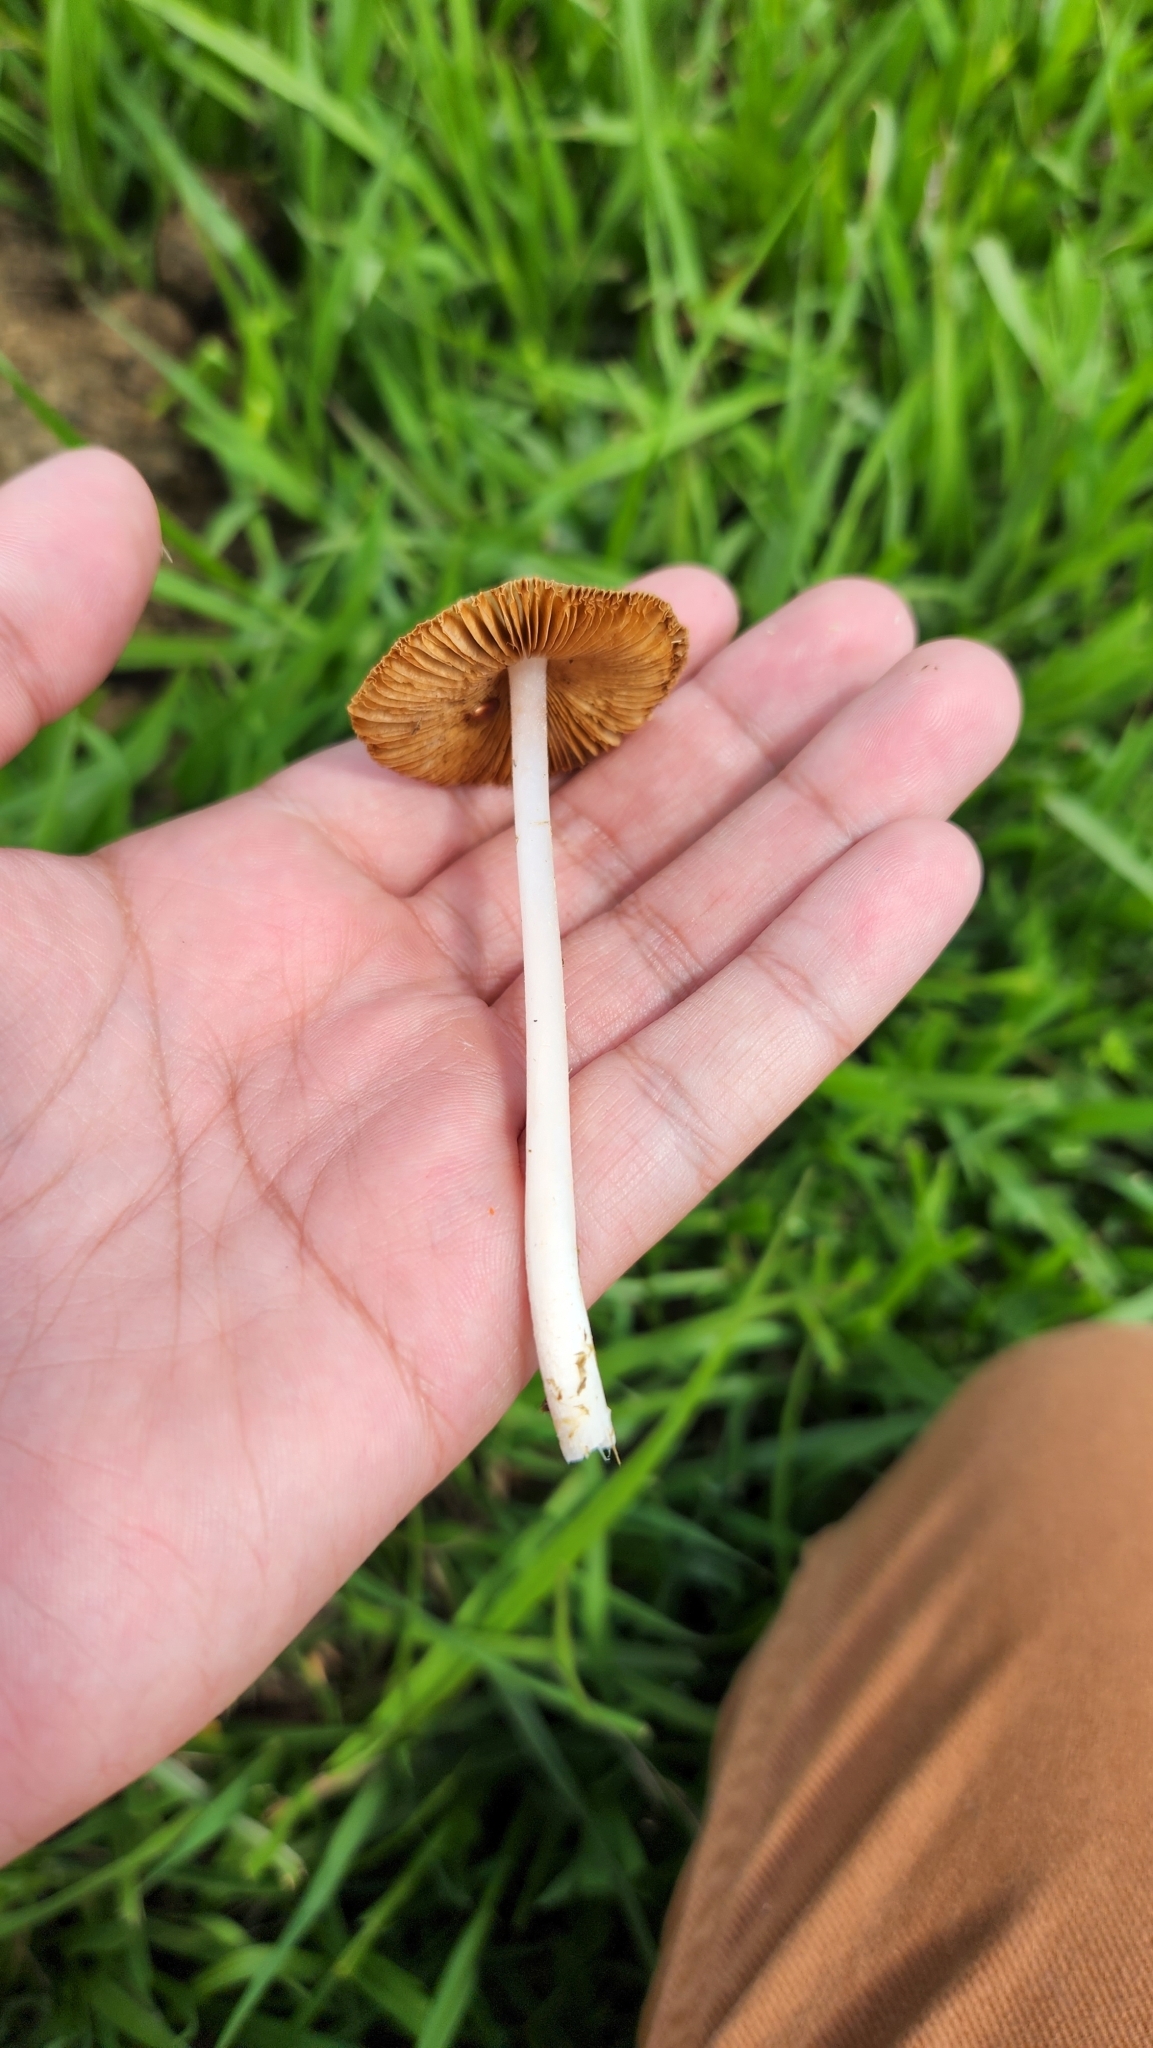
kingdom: Fungi
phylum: Basidiomycota
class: Agaricomycetes
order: Agaricales
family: Bolbitiaceae
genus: Conocybe
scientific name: Conocybe apala
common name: Milky conecap
